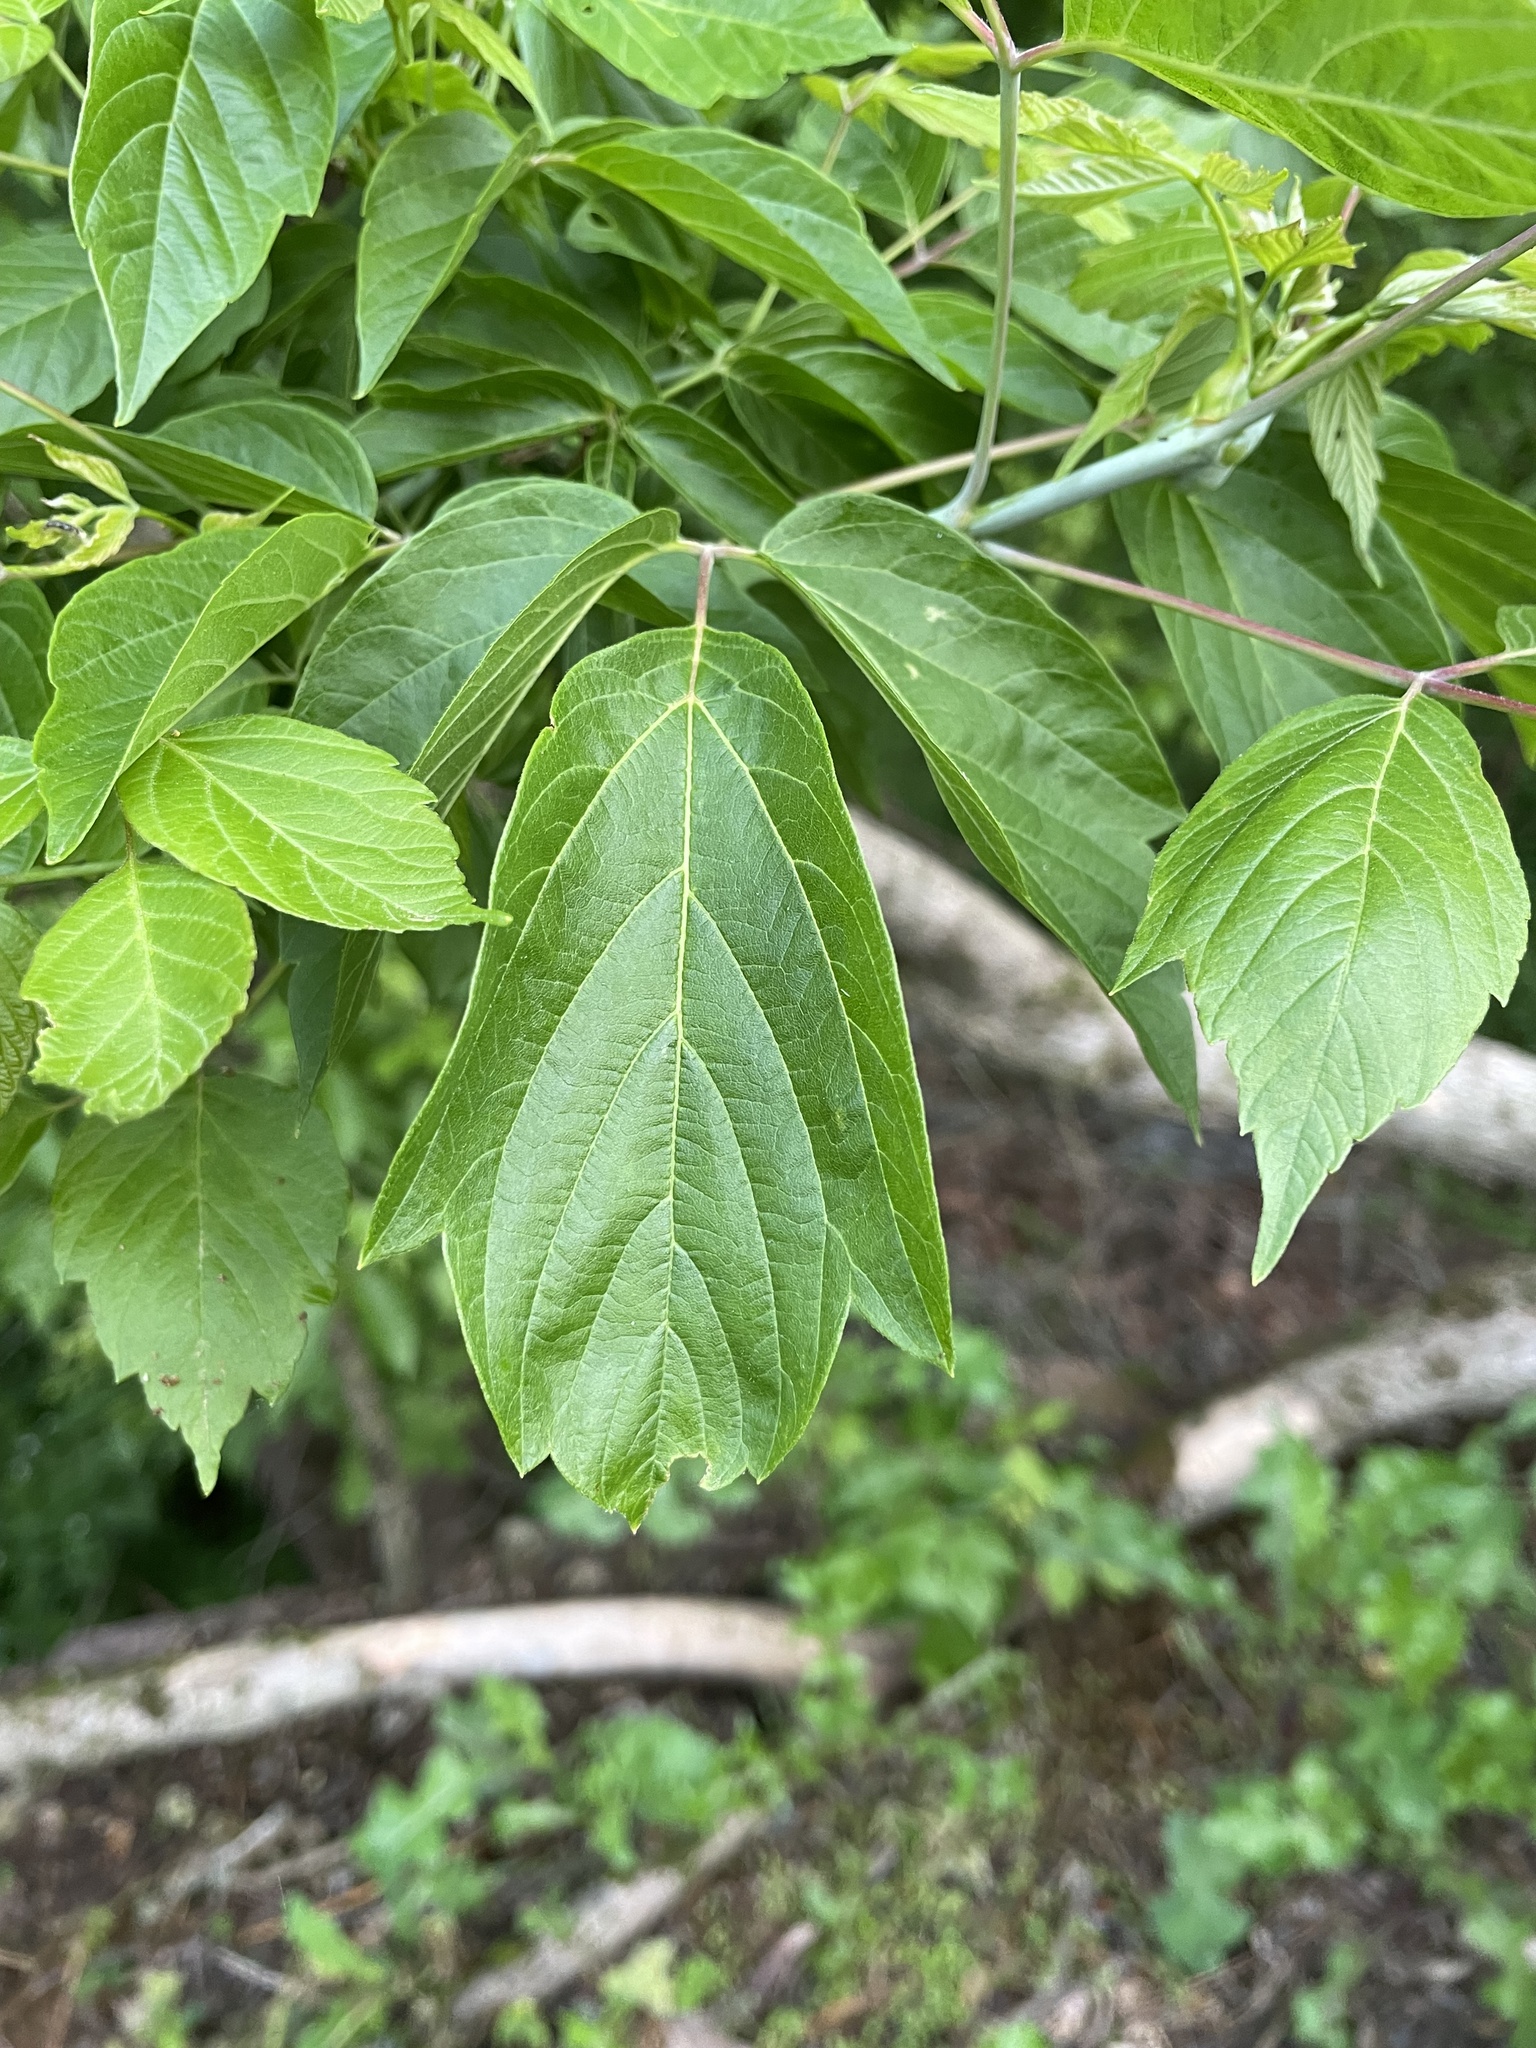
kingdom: Plantae
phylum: Tracheophyta
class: Magnoliopsida
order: Sapindales
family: Sapindaceae
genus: Acer
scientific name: Acer negundo
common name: Ashleaf maple
